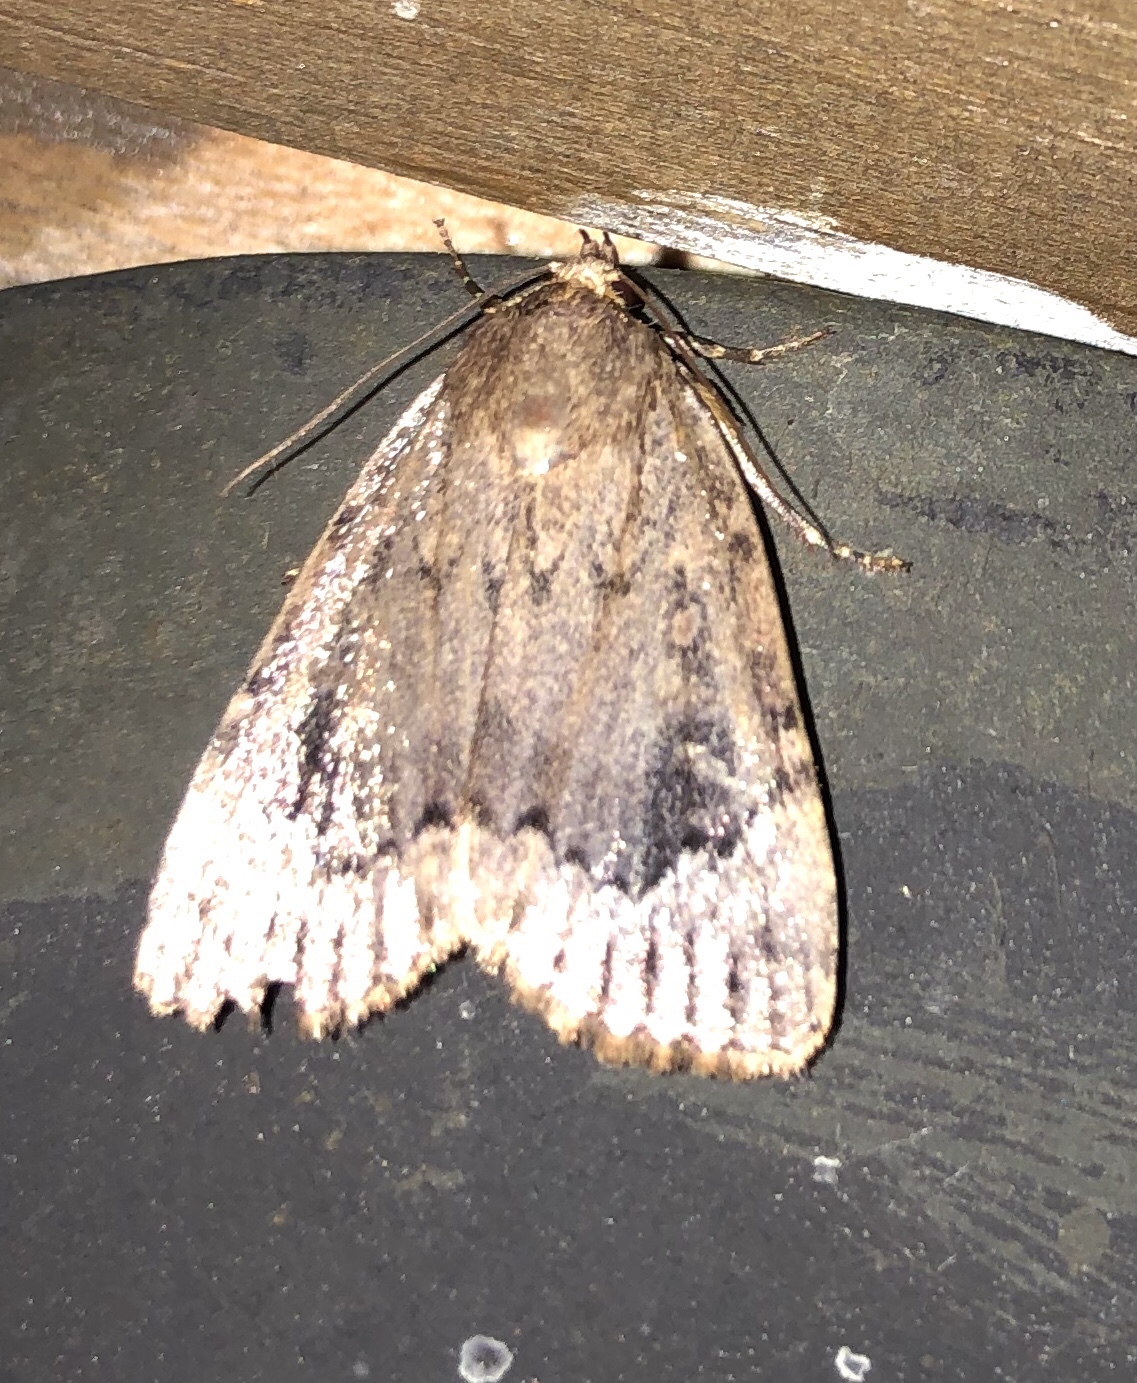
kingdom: Animalia
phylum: Arthropoda
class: Insecta
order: Lepidoptera
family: Noctuidae
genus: Amphipyra
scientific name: Amphipyra pyramidoides
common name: American copper underwing
